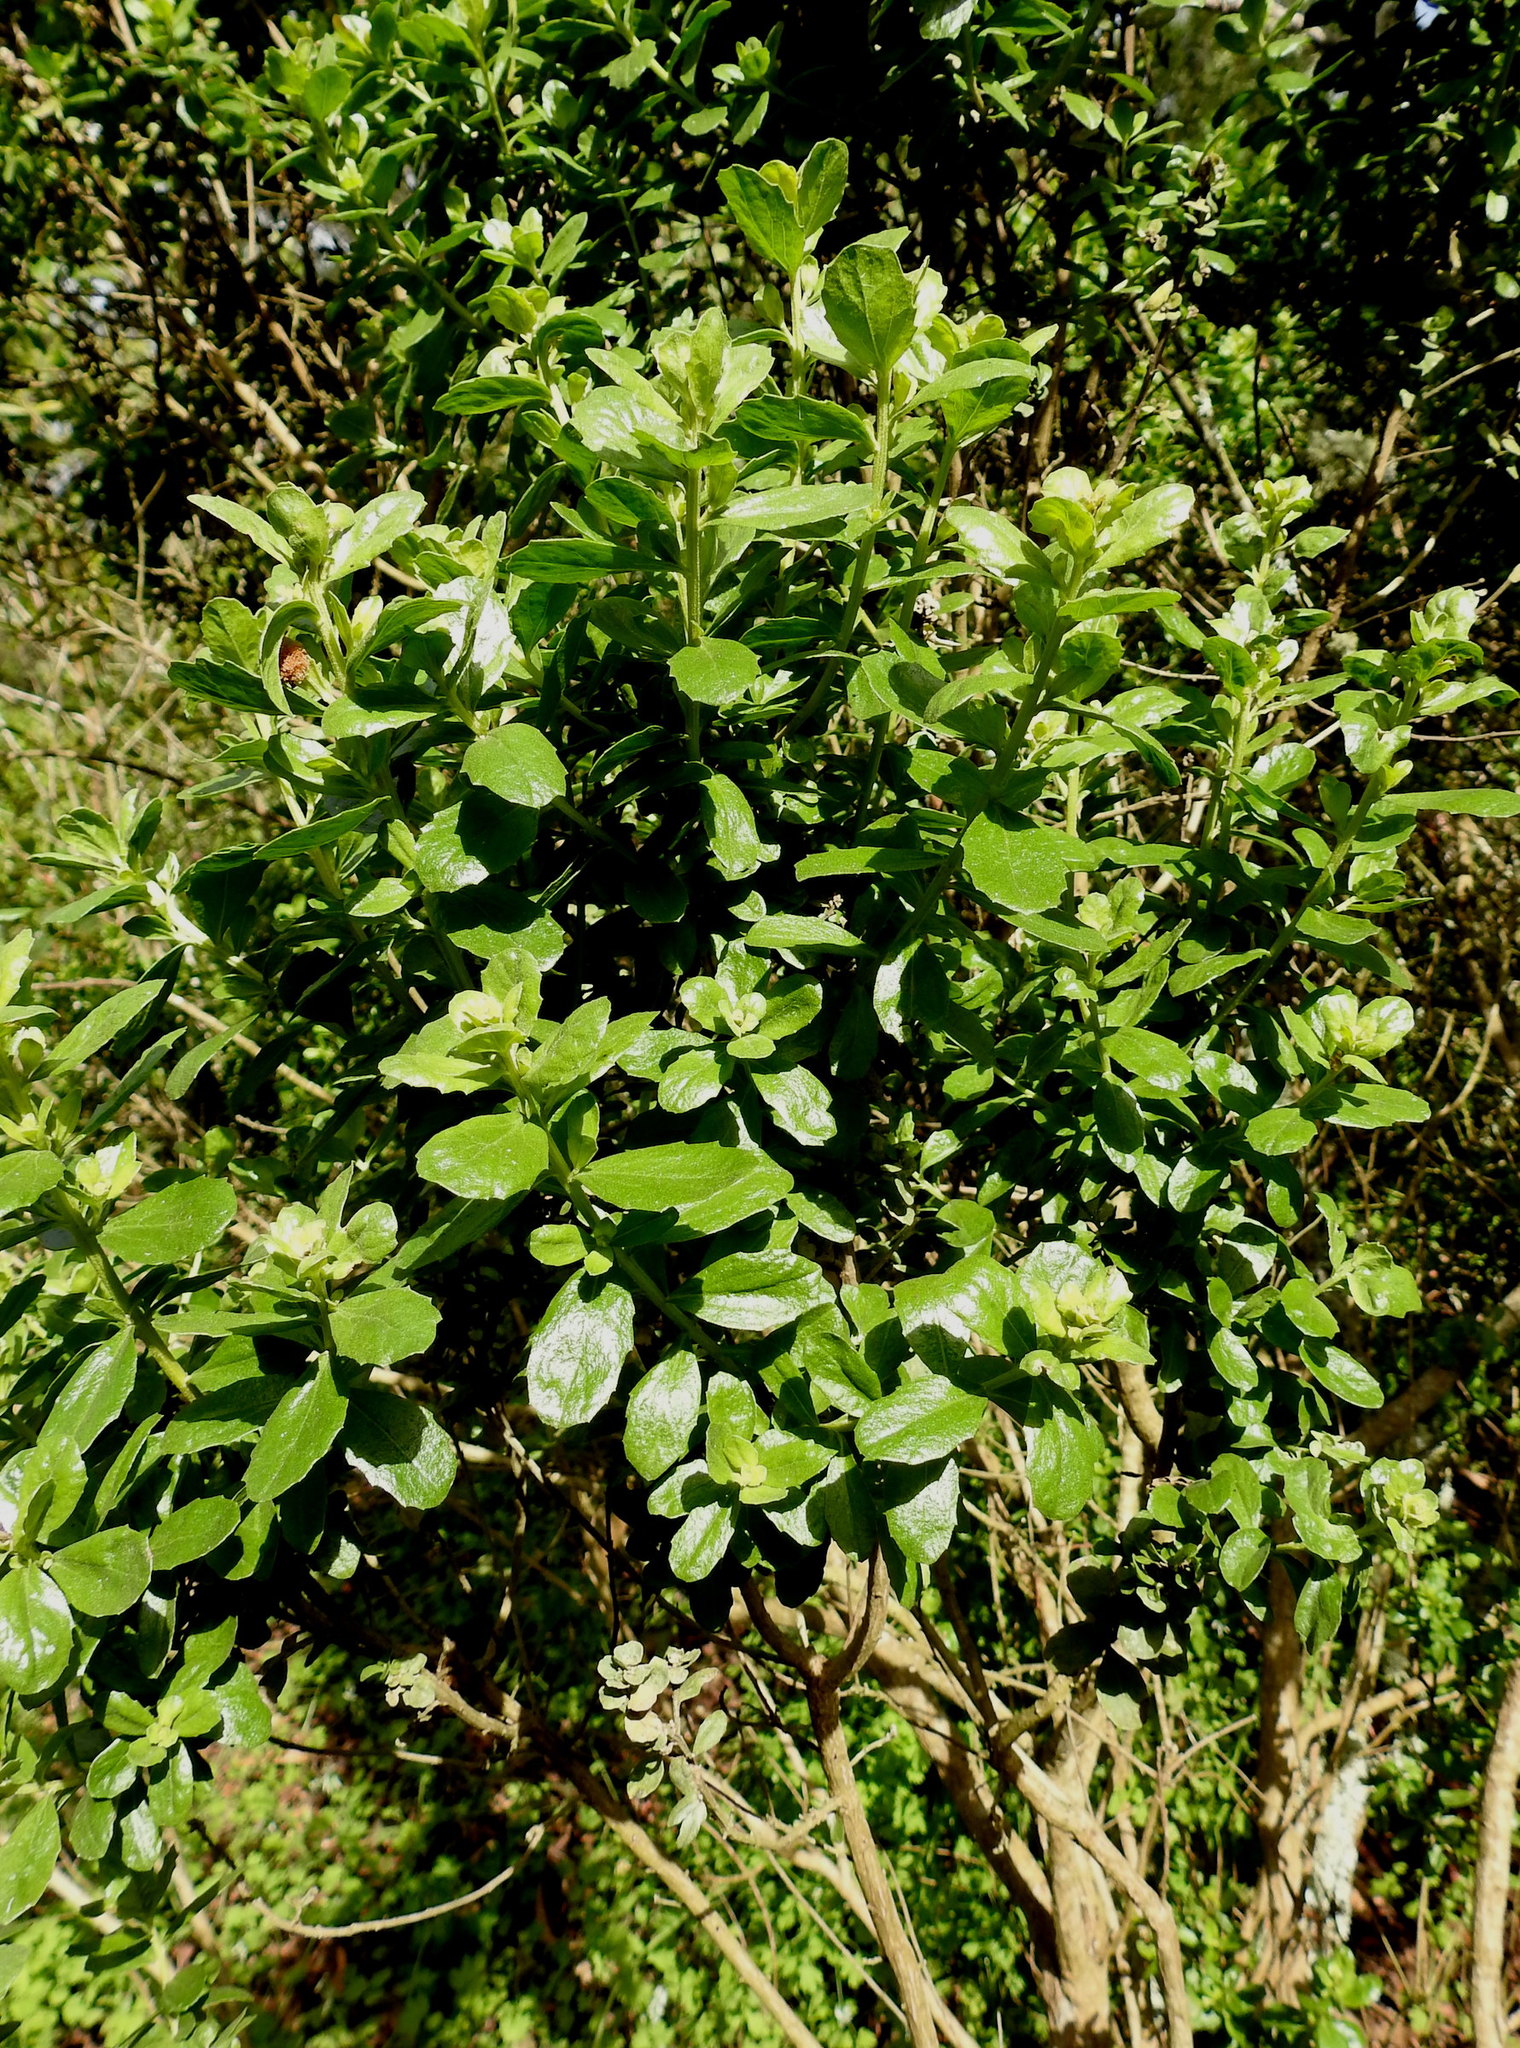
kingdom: Plantae
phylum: Tracheophyta
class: Magnoliopsida
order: Asterales
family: Asteraceae
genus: Baccharis
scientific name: Baccharis pilularis
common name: Coyotebrush
